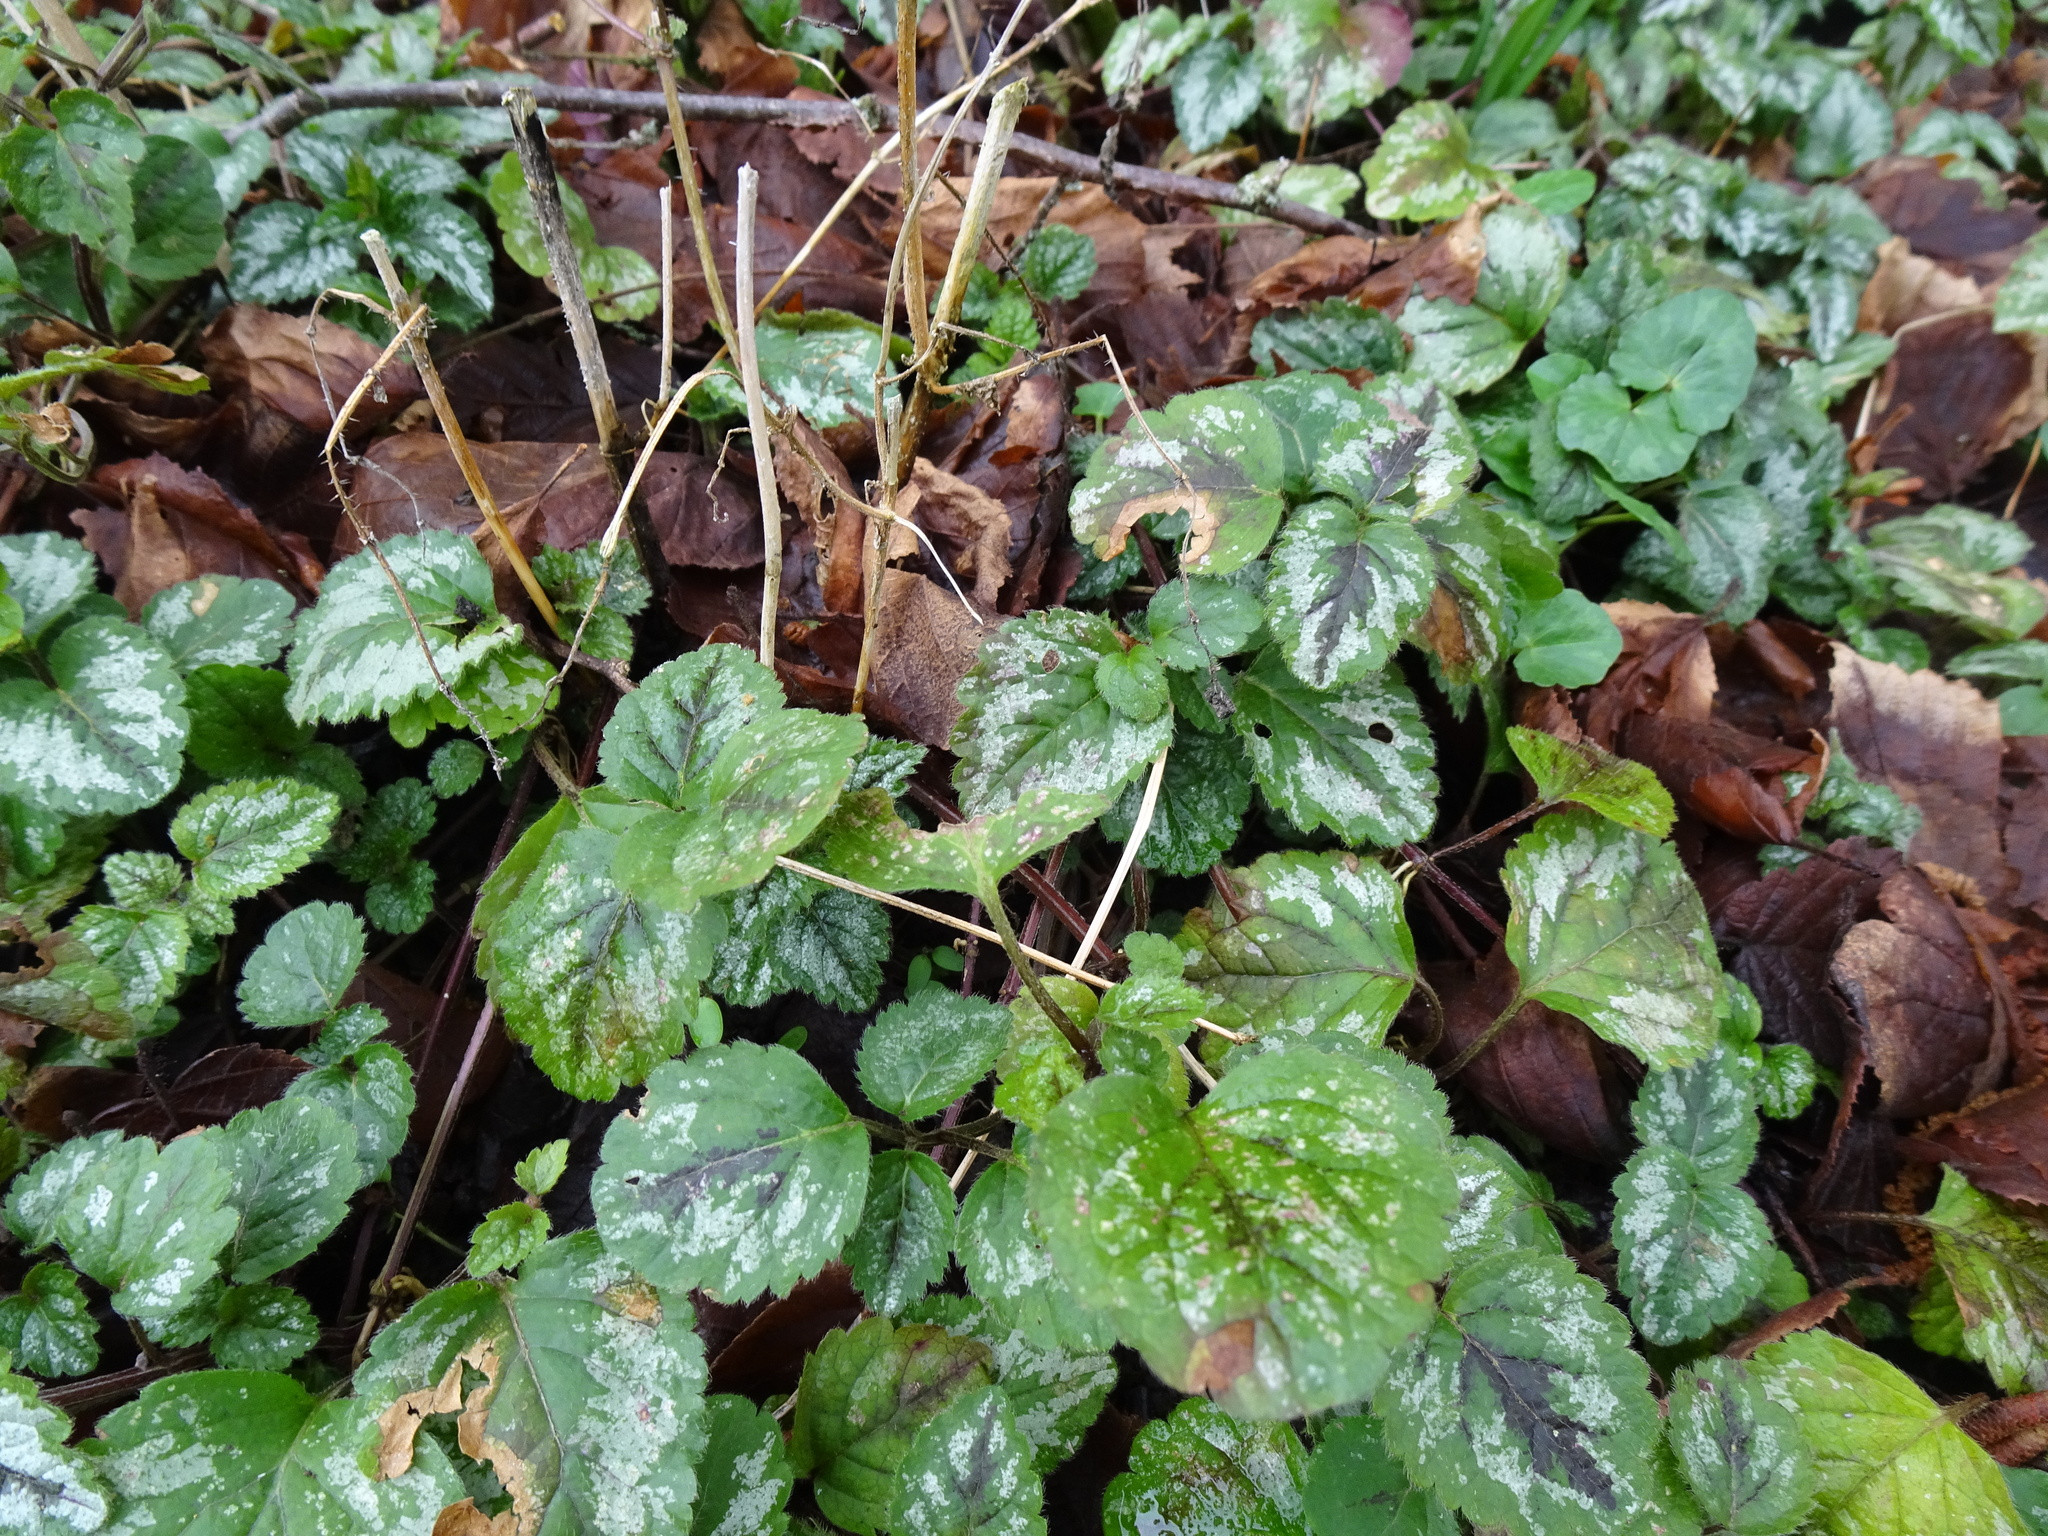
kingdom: Plantae
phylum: Tracheophyta
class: Magnoliopsida
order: Lamiales
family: Lamiaceae
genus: Lamium
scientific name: Lamium galeobdolon
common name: Yellow archangel
